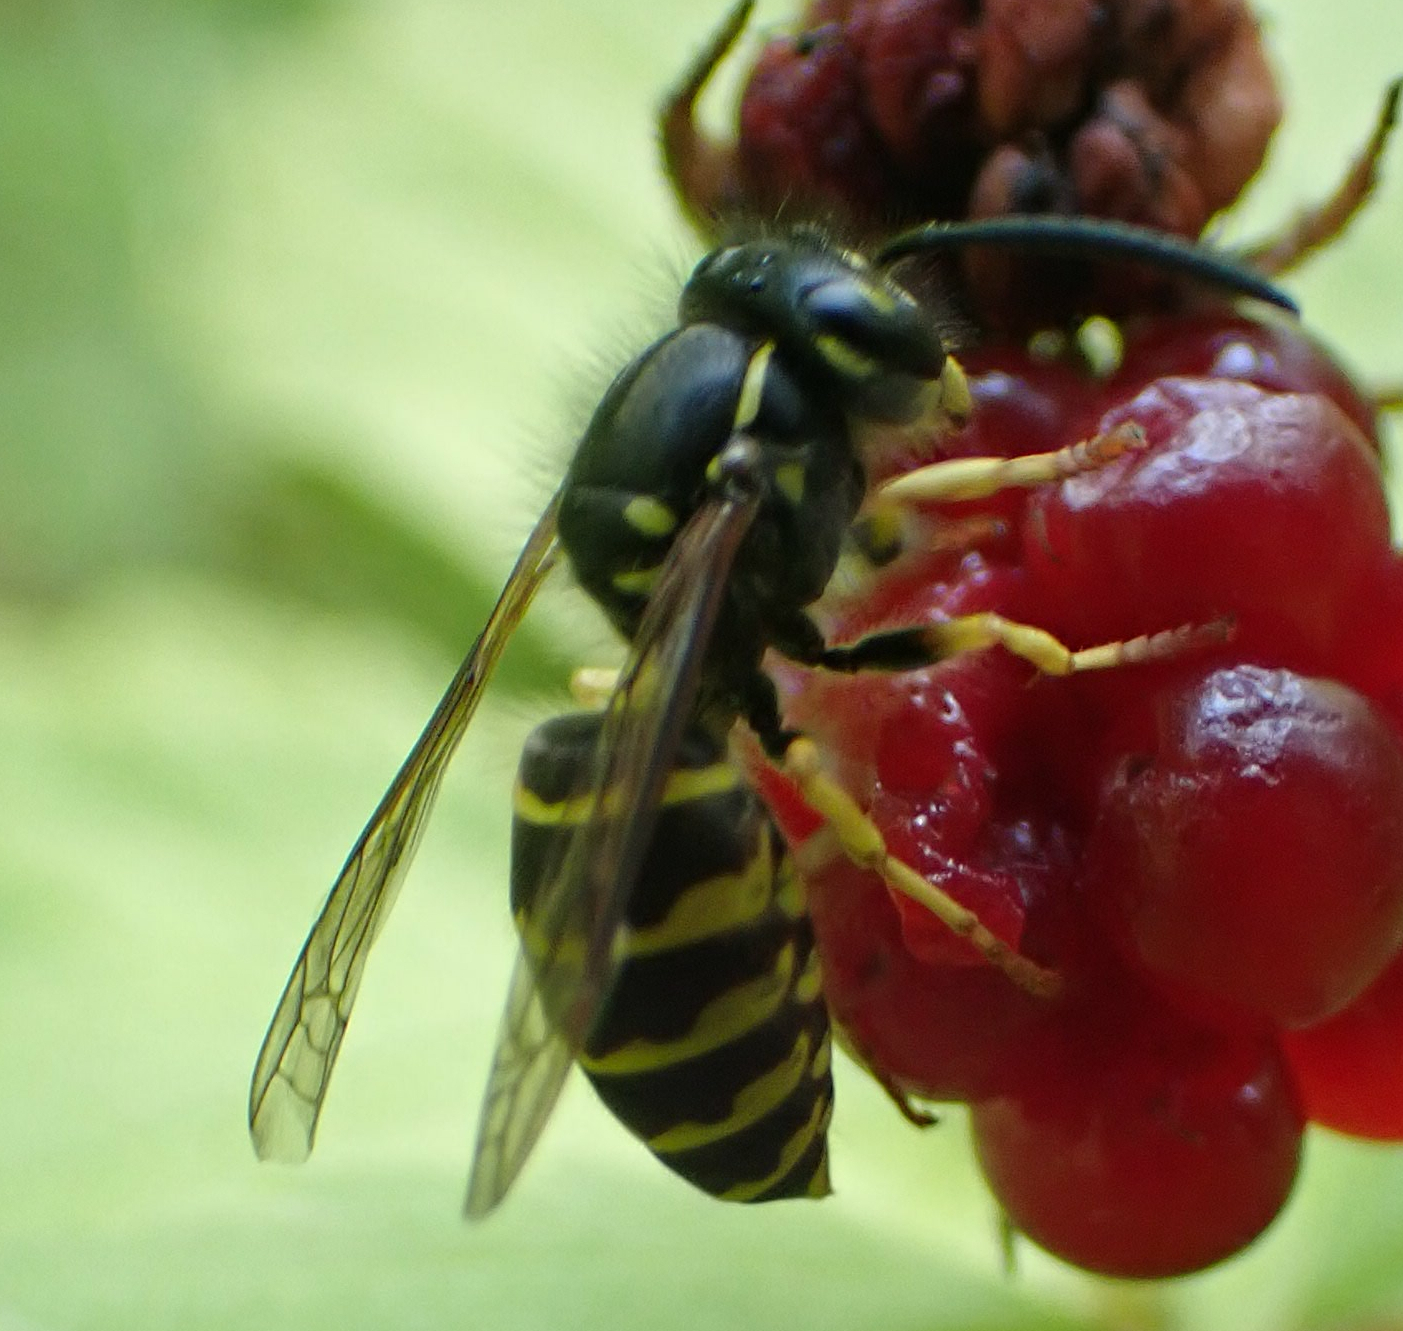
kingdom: Animalia
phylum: Arthropoda
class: Insecta
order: Hymenoptera
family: Vespidae
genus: Vespula
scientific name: Vespula alascensis
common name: Alaska yellowjacket
